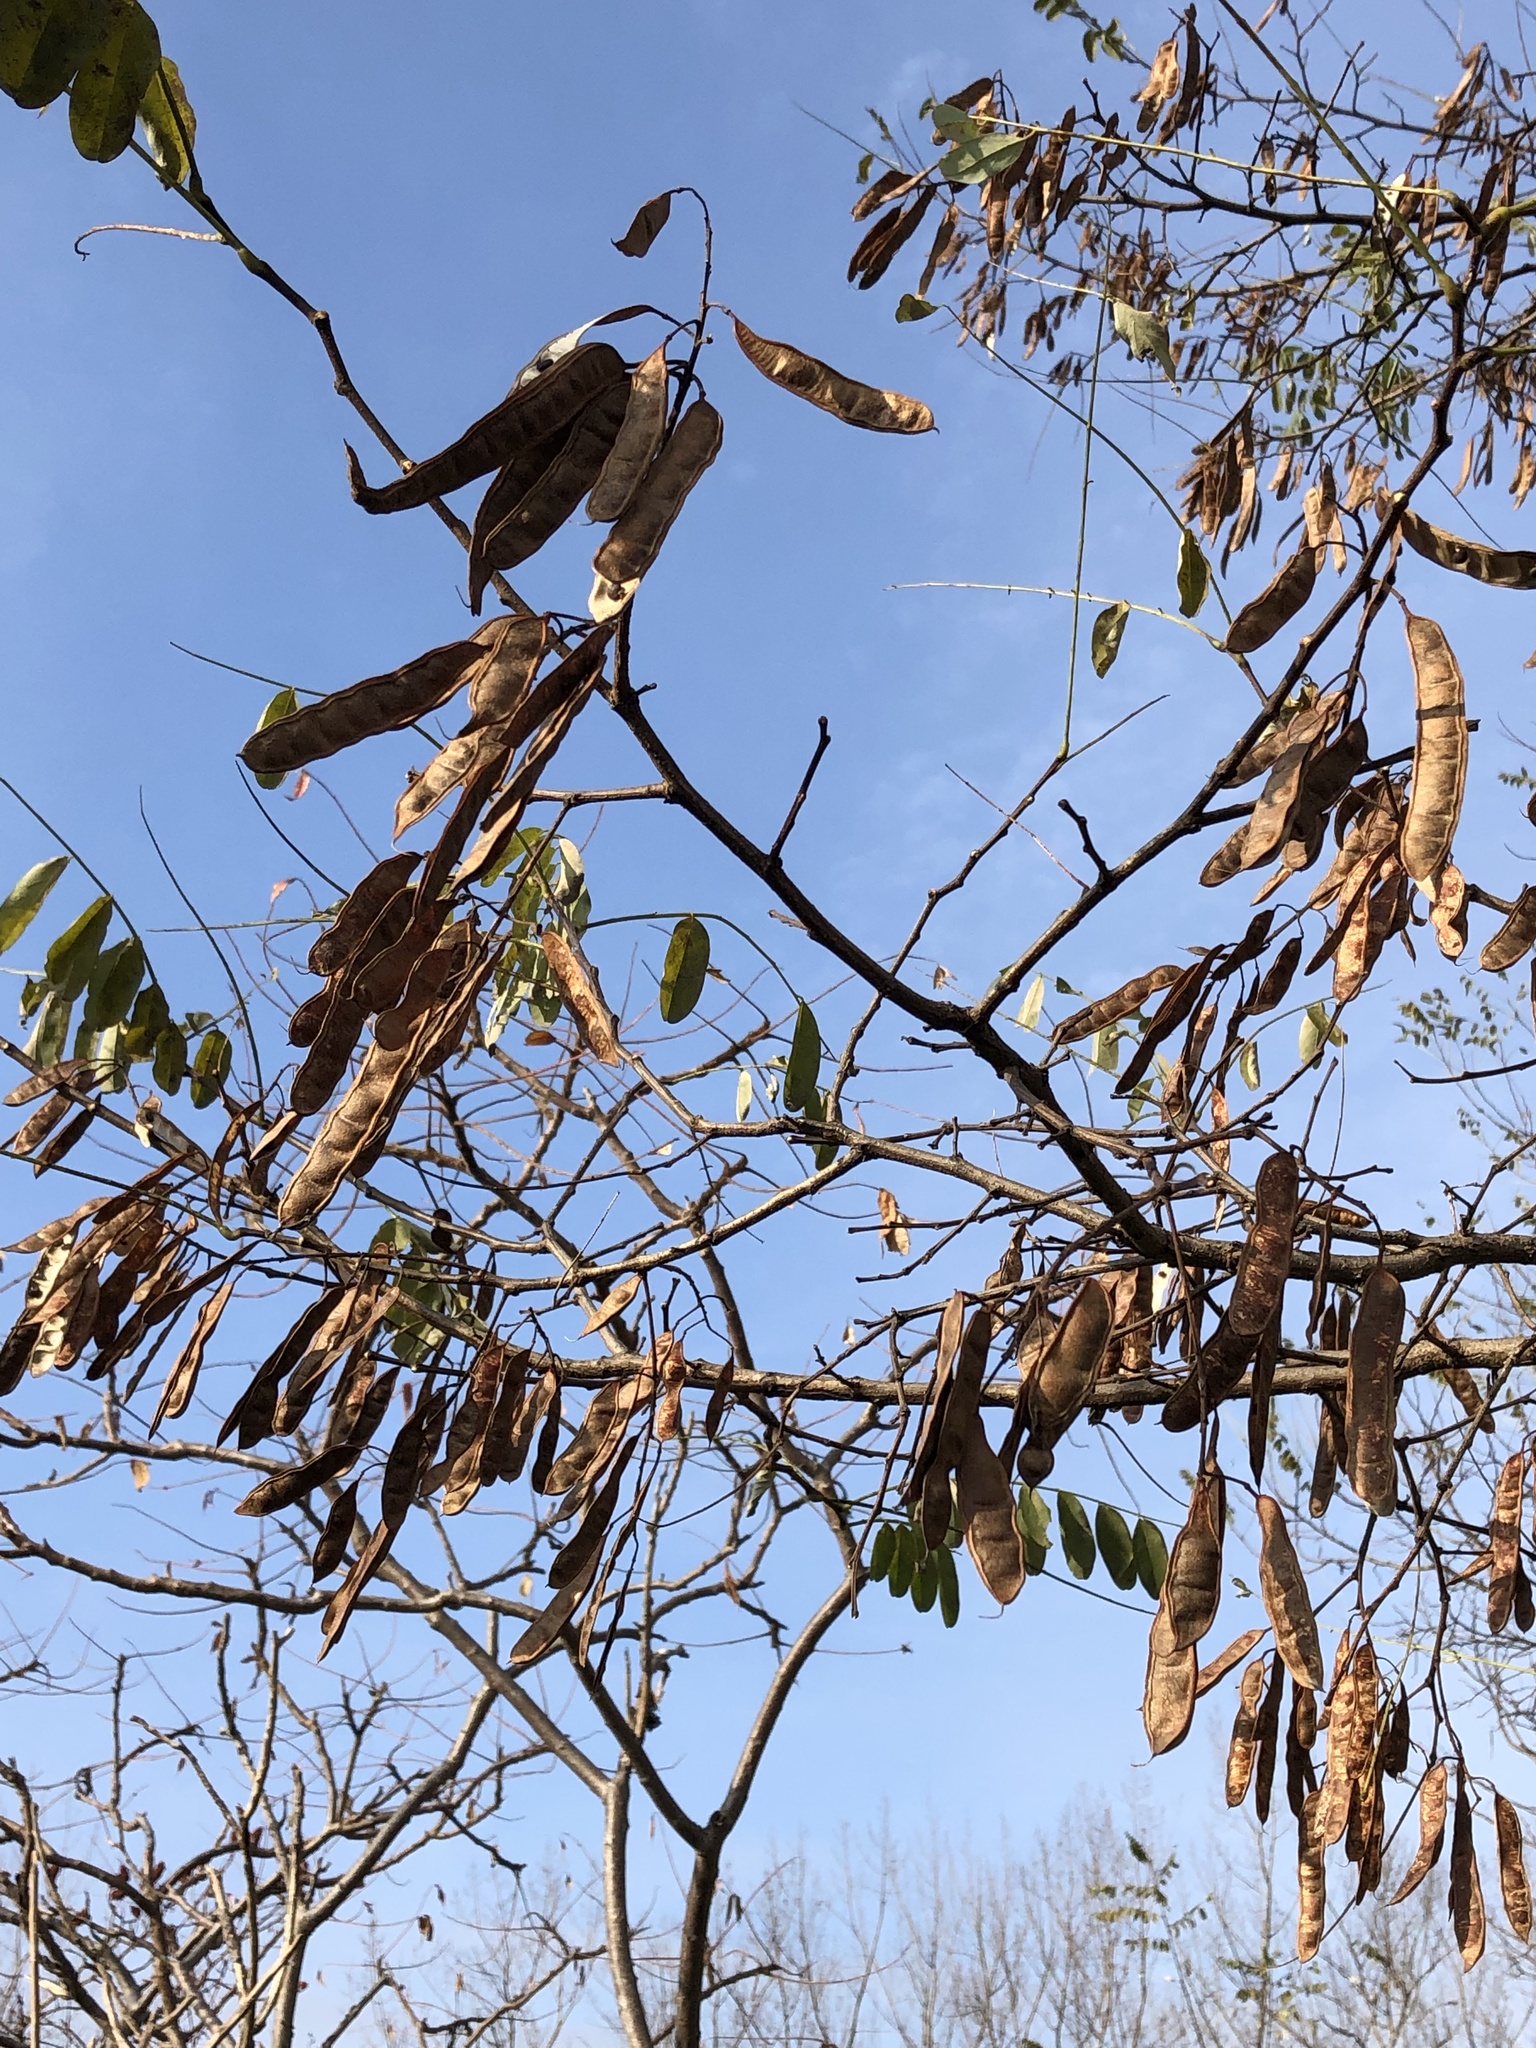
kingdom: Plantae
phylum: Tracheophyta
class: Magnoliopsida
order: Fabales
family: Fabaceae
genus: Robinia
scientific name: Robinia pseudoacacia
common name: Black locust
